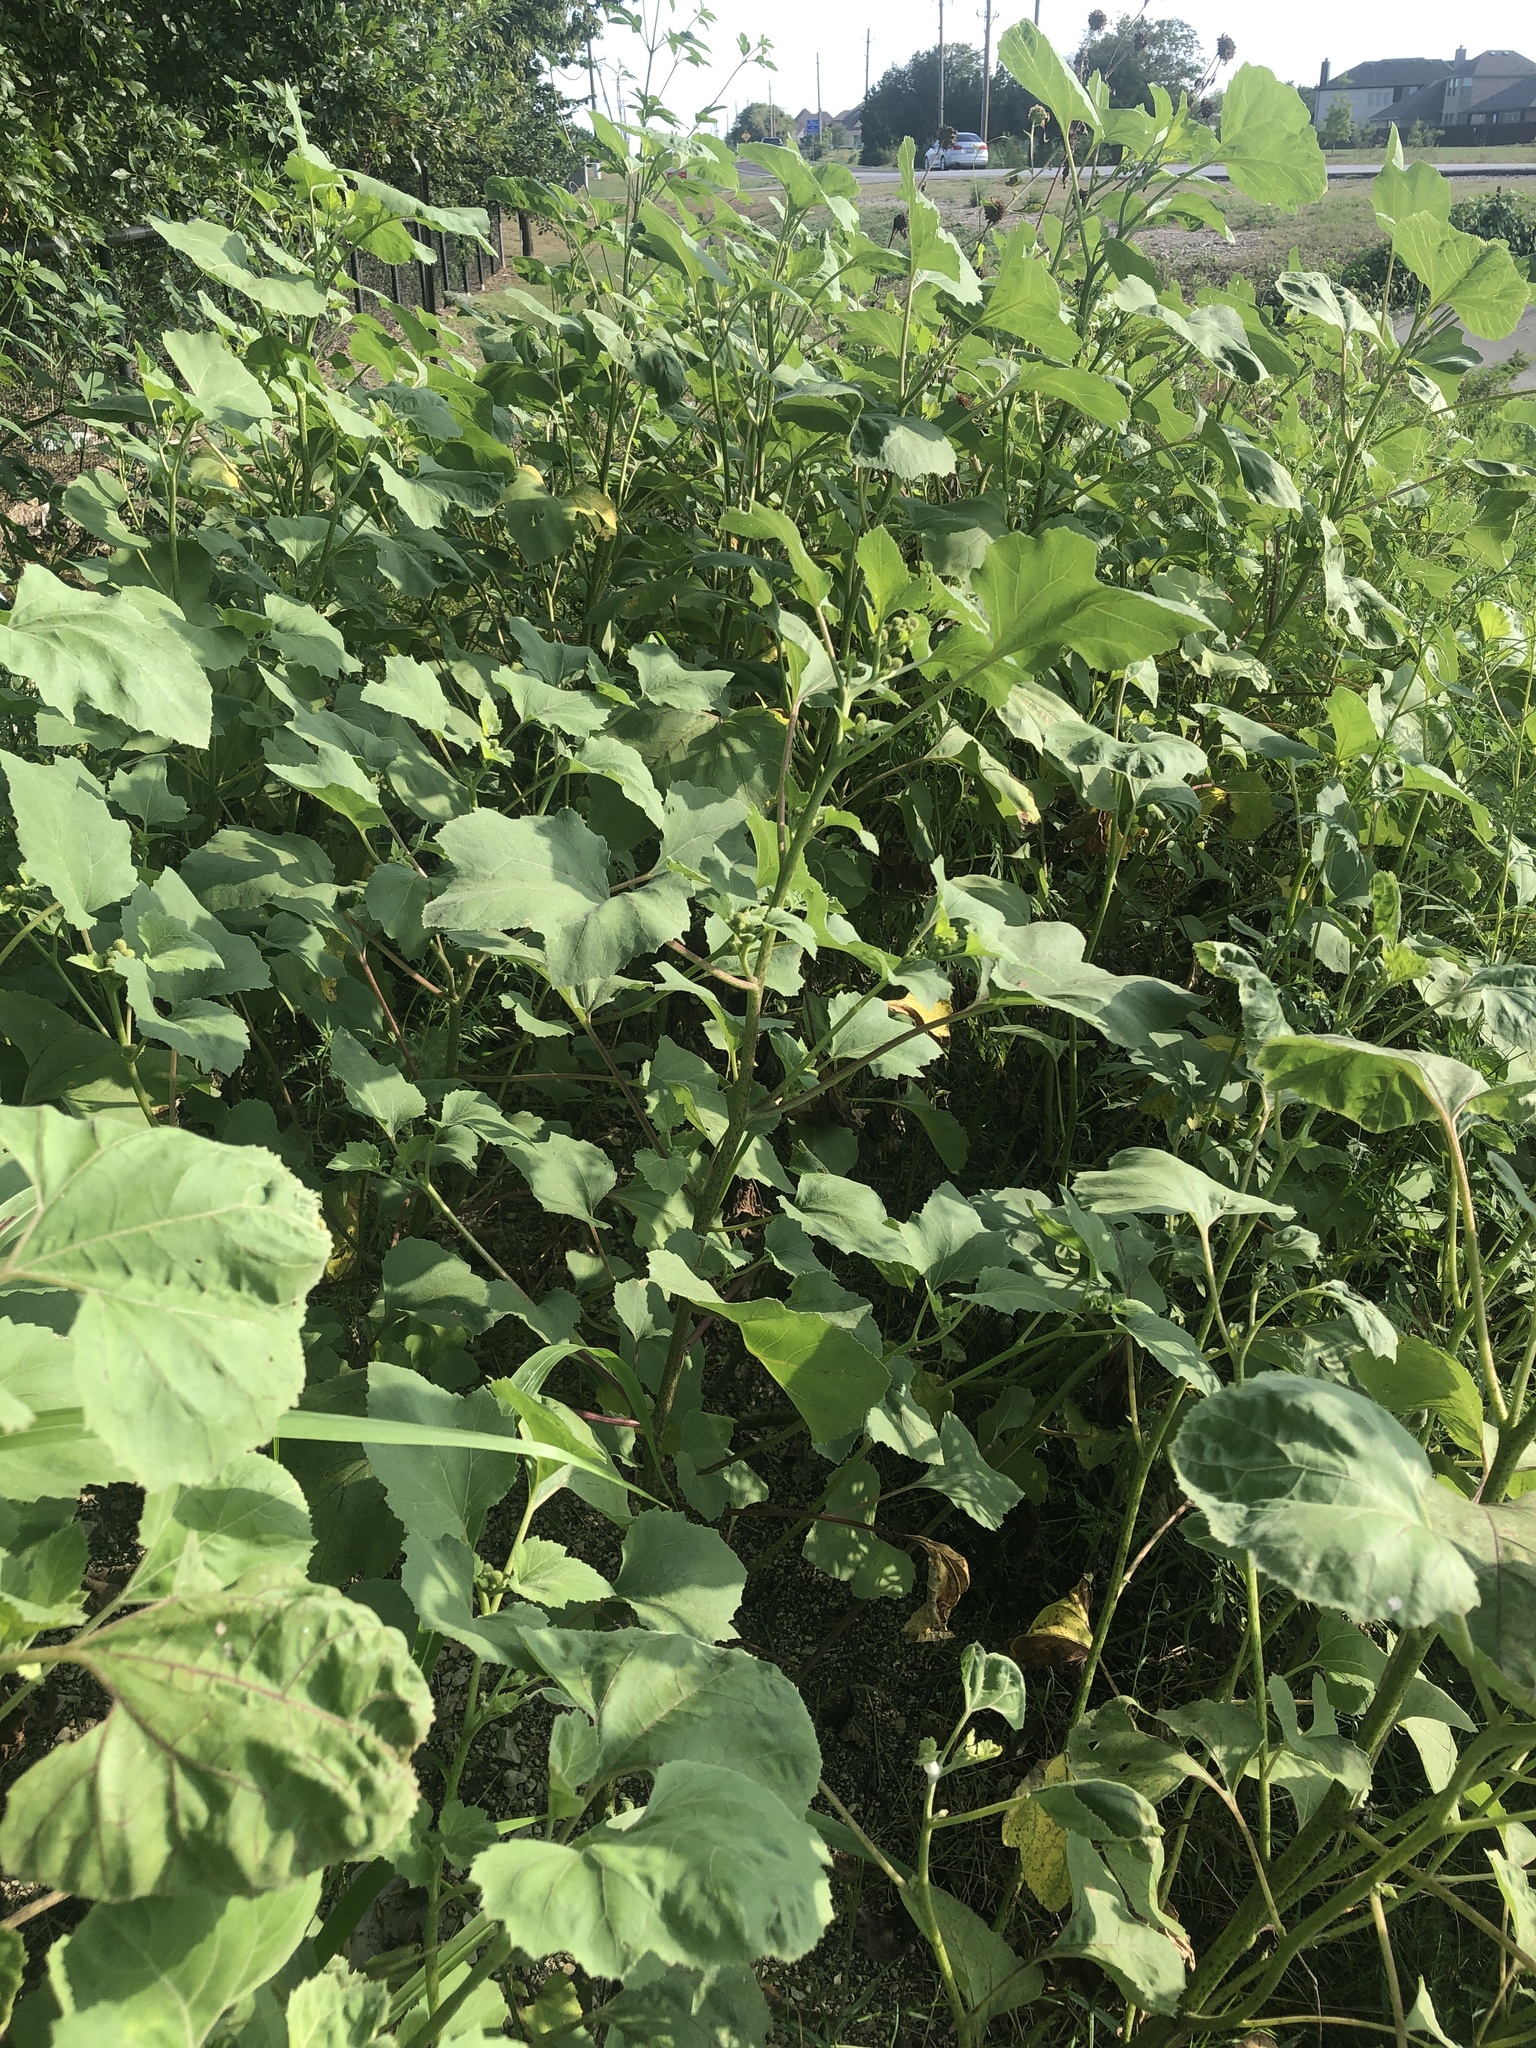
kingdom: Plantae
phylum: Tracheophyta
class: Magnoliopsida
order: Asterales
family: Asteraceae
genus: Xanthium
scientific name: Xanthium strumarium
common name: Rough cocklebur
